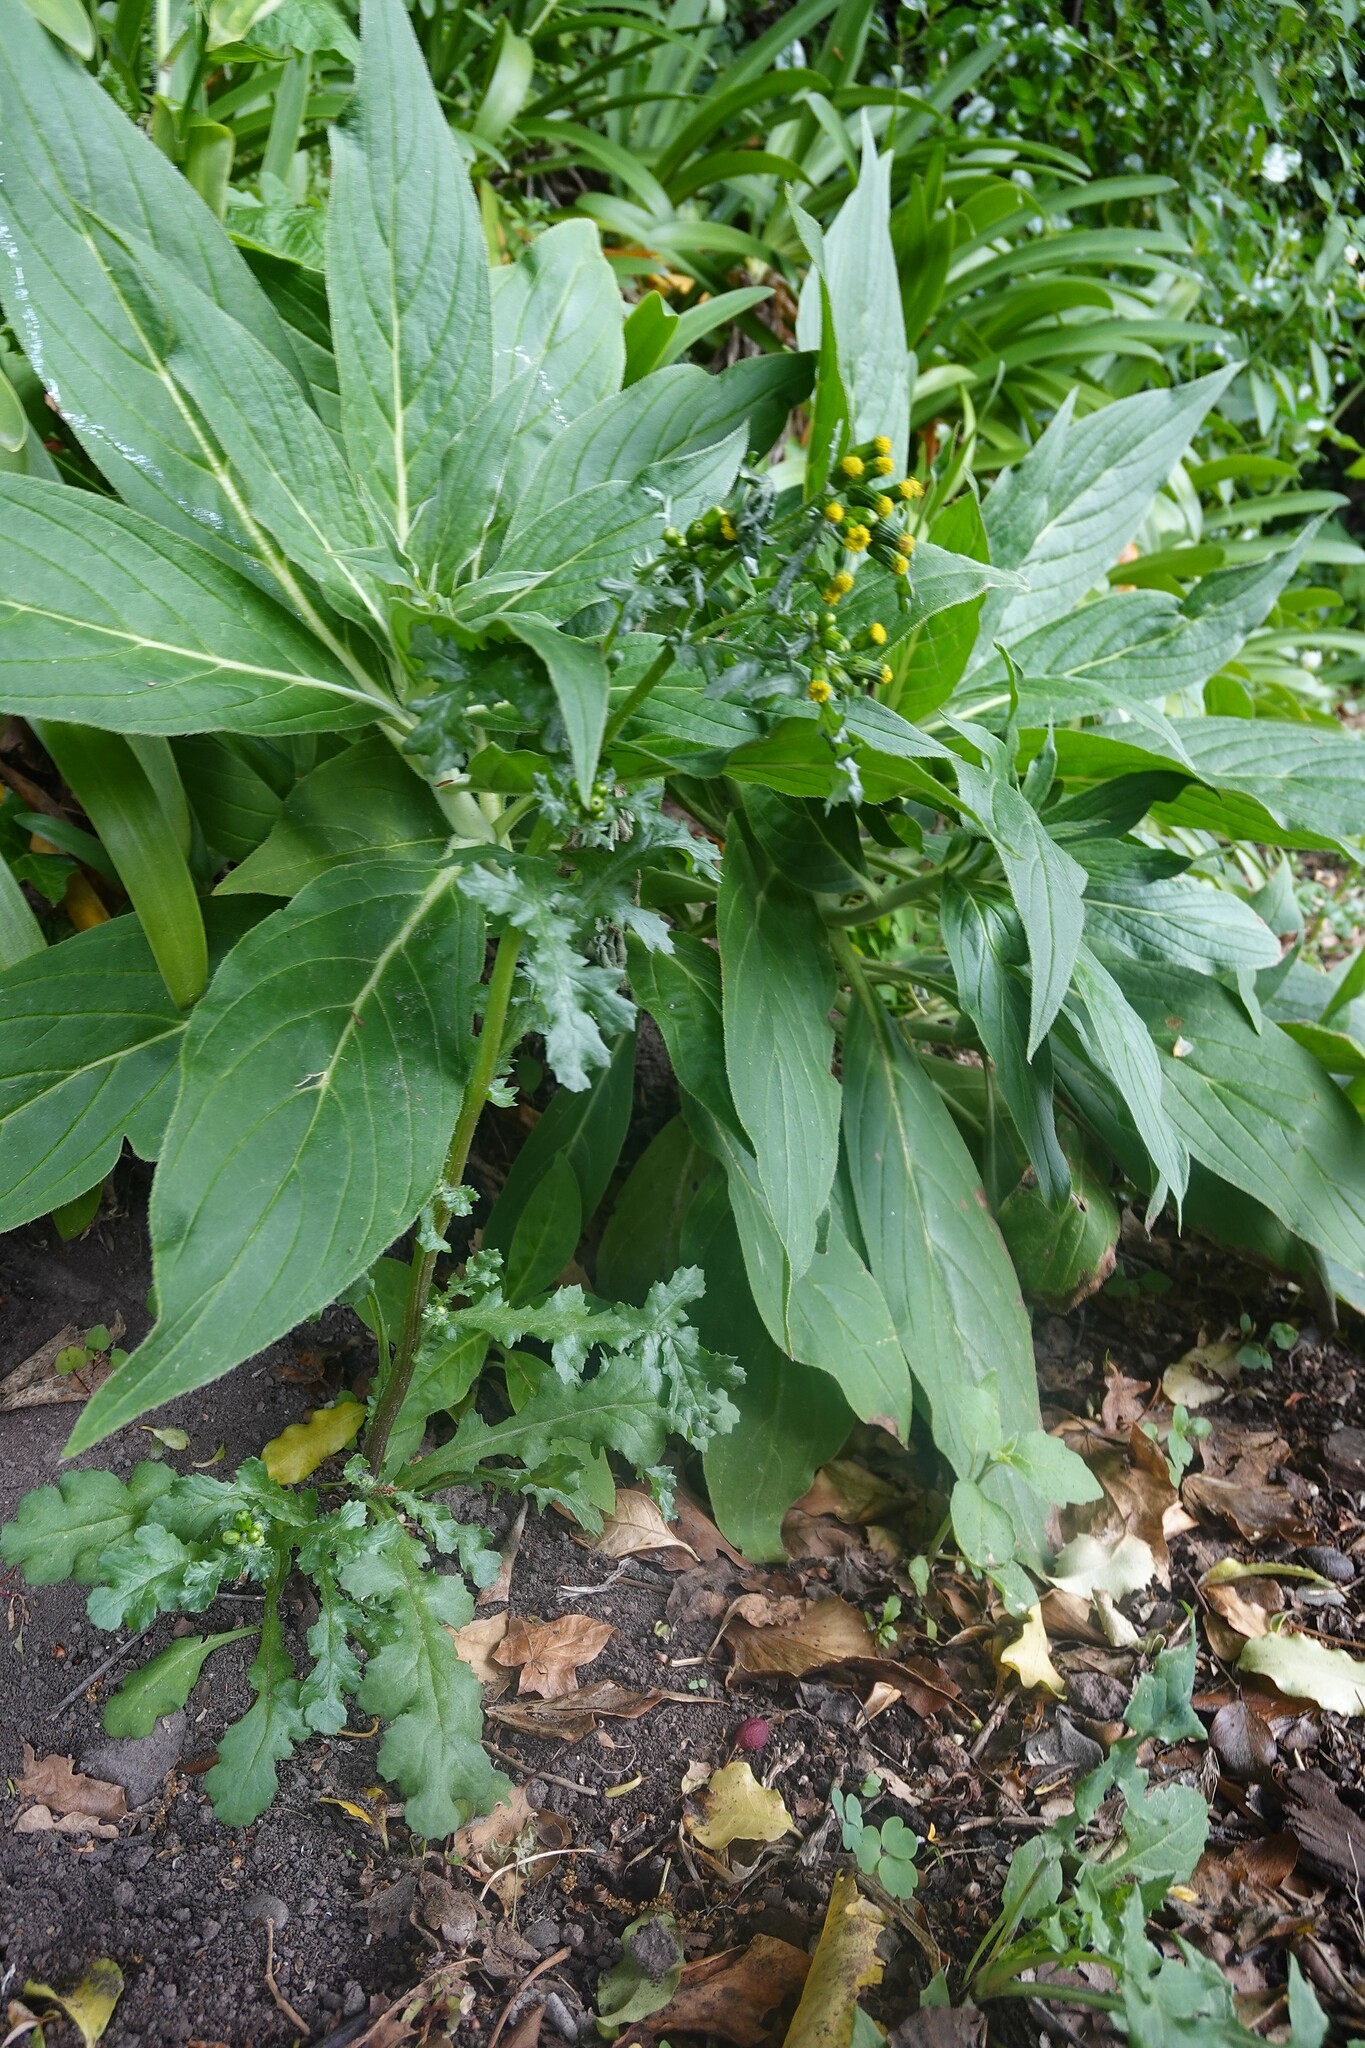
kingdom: Plantae
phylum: Tracheophyta
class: Magnoliopsida
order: Asterales
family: Asteraceae
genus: Senecio
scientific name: Senecio vulgaris
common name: Old-man-in-the-spring
